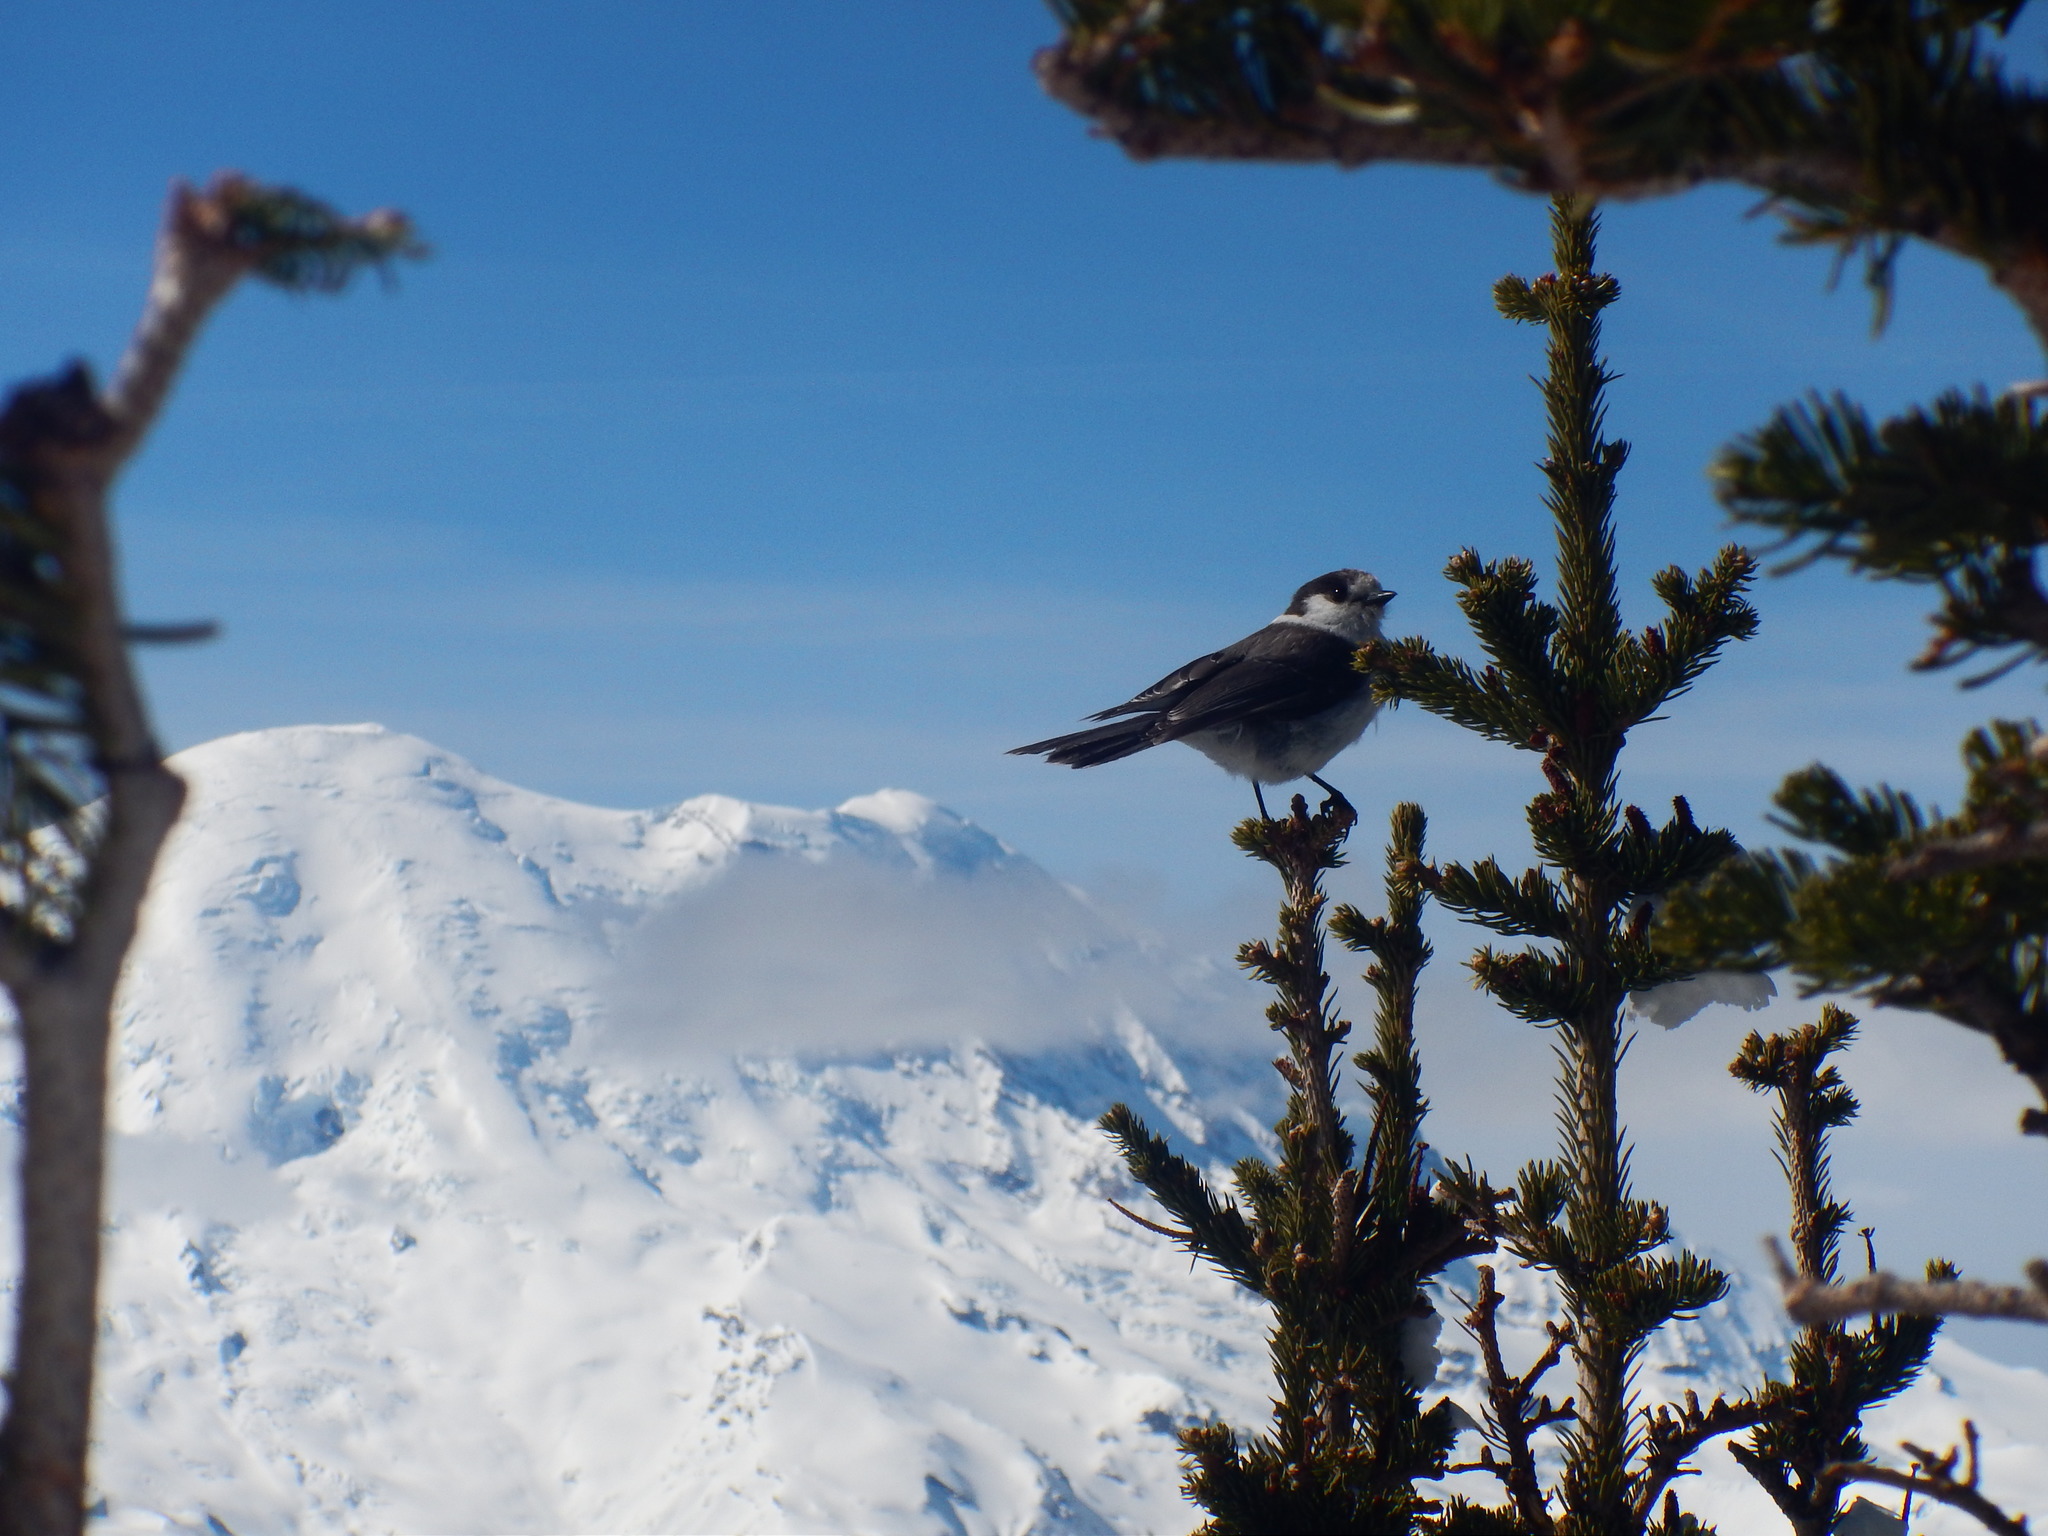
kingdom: Animalia
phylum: Chordata
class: Aves
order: Passeriformes
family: Corvidae
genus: Perisoreus
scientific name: Perisoreus canadensis
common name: Gray jay
